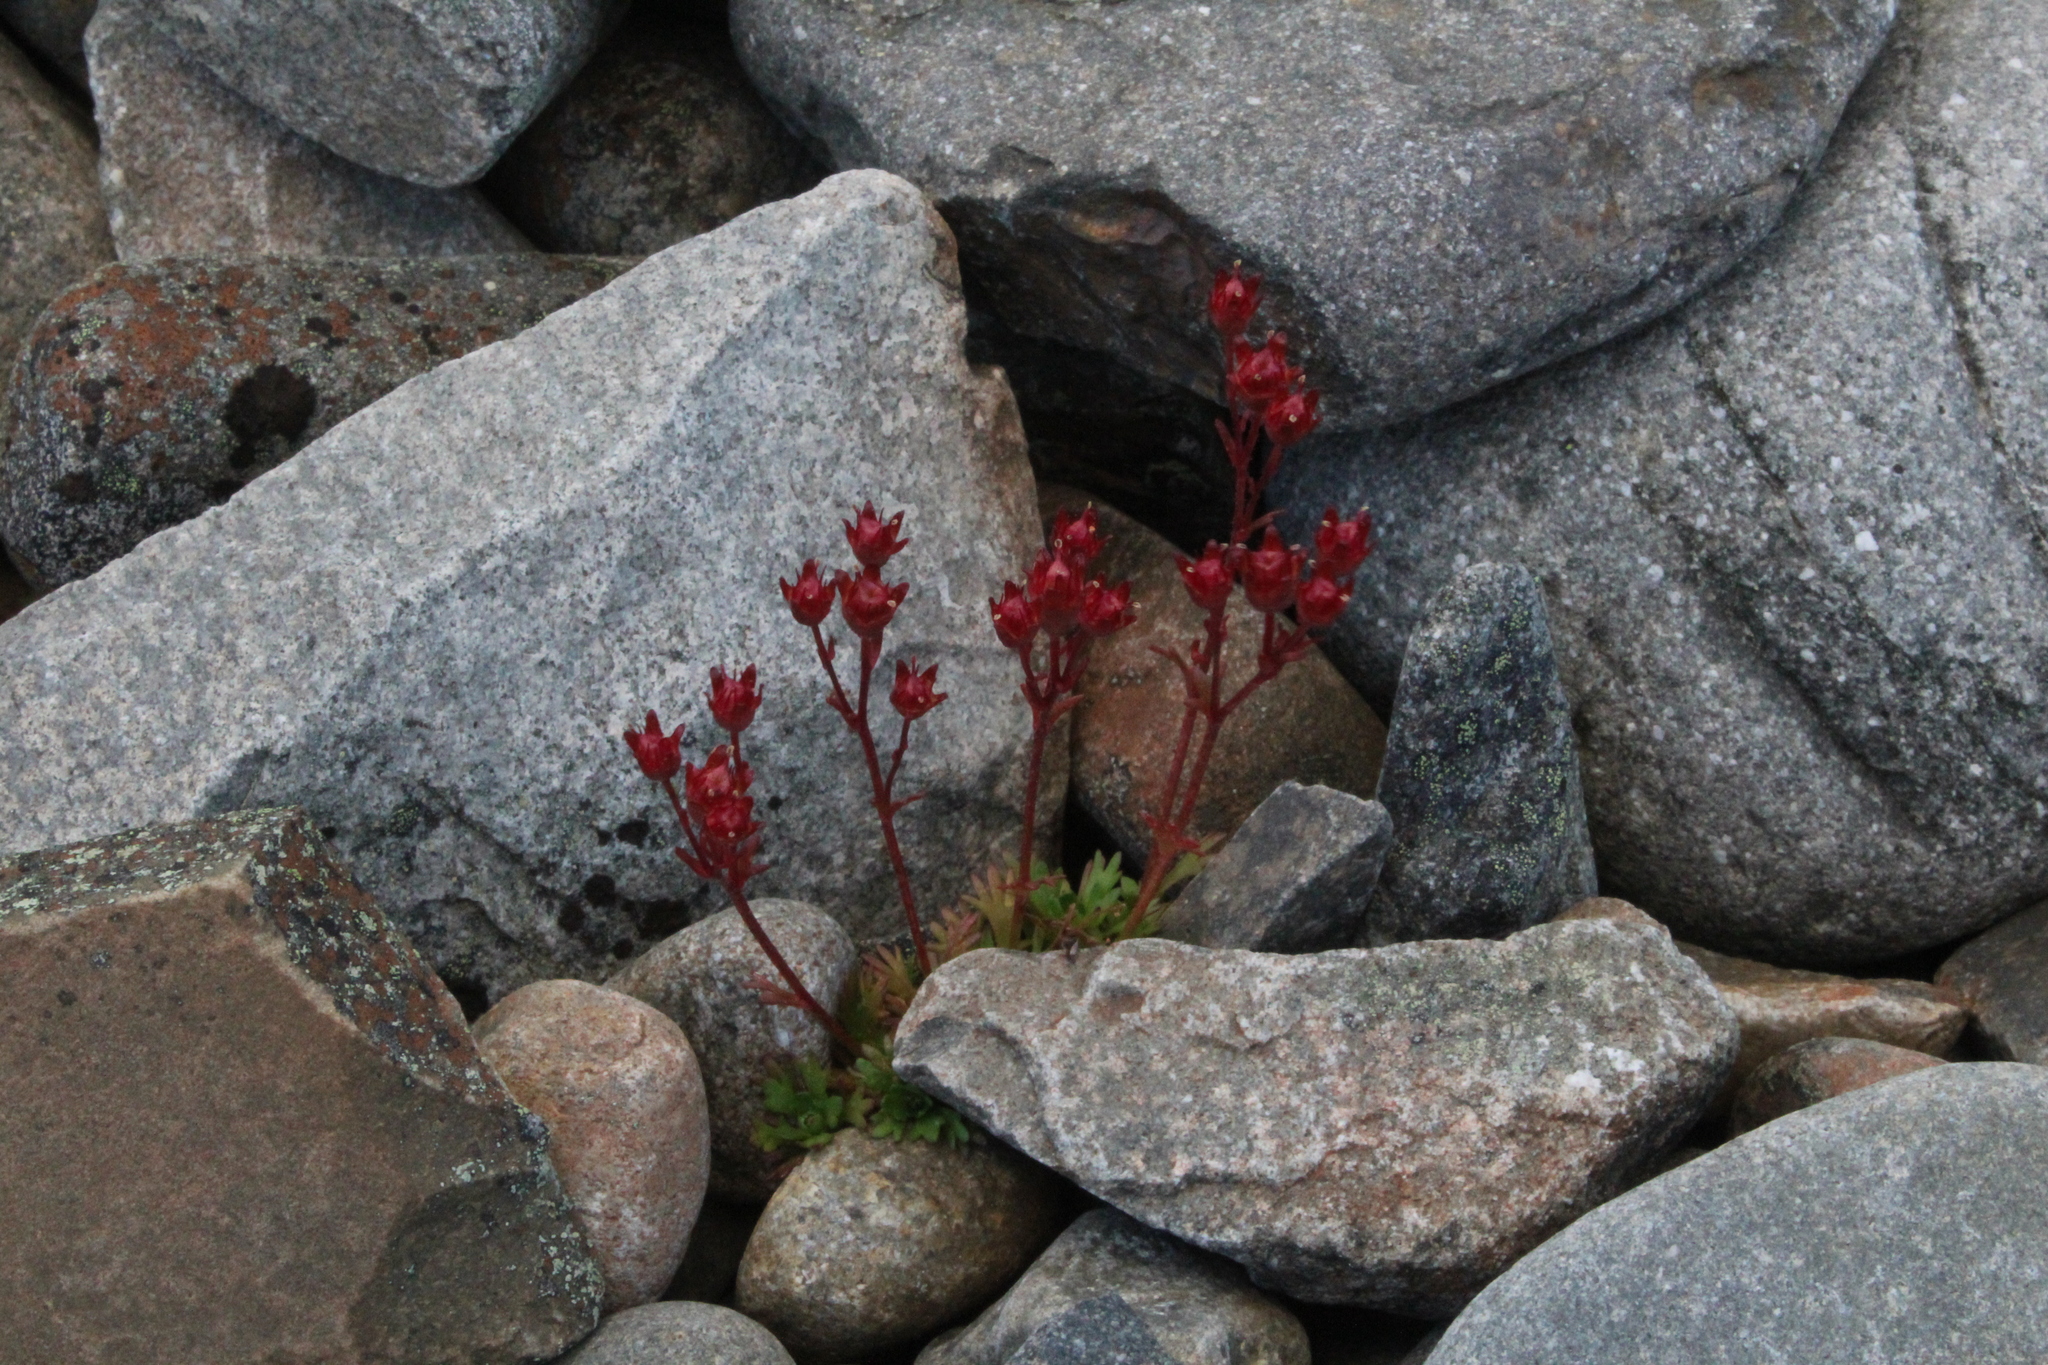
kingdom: Plantae
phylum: Tracheophyta
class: Magnoliopsida
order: Saxifragales
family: Saxifragaceae
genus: Saxifraga
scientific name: Saxifraga cespitosa
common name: Tufted saxifrage
